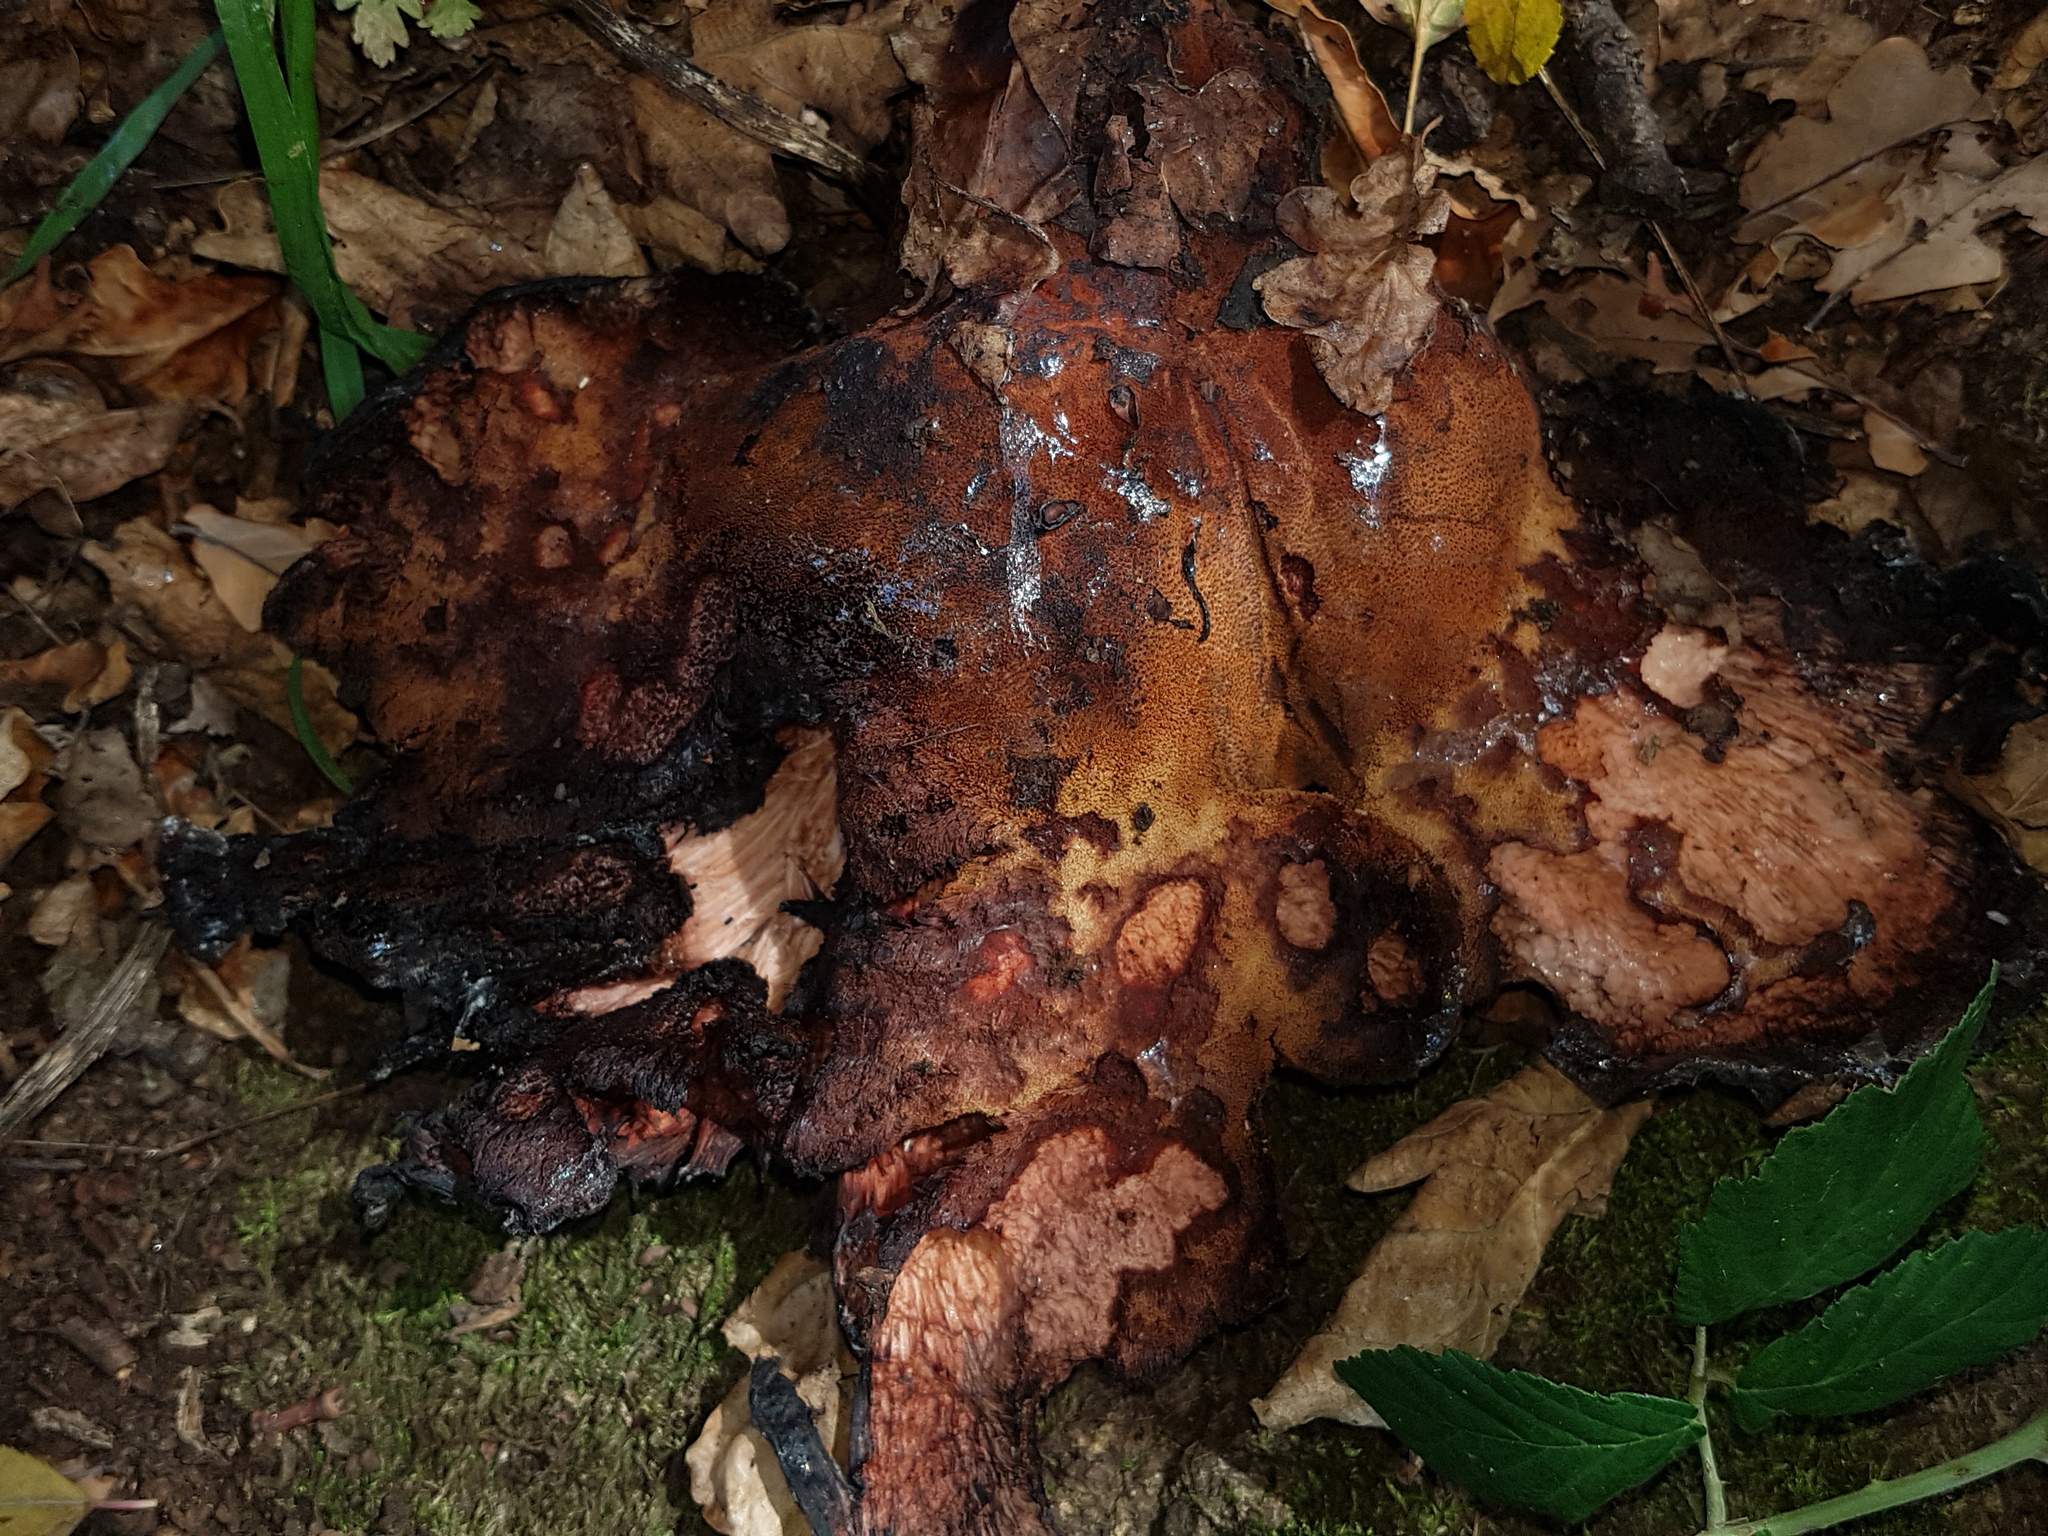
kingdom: Fungi
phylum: Basidiomycota
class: Agaricomycetes
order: Agaricales
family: Fistulinaceae
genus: Fistulina
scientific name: Fistulina hepatica
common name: Beef-steak fungus
